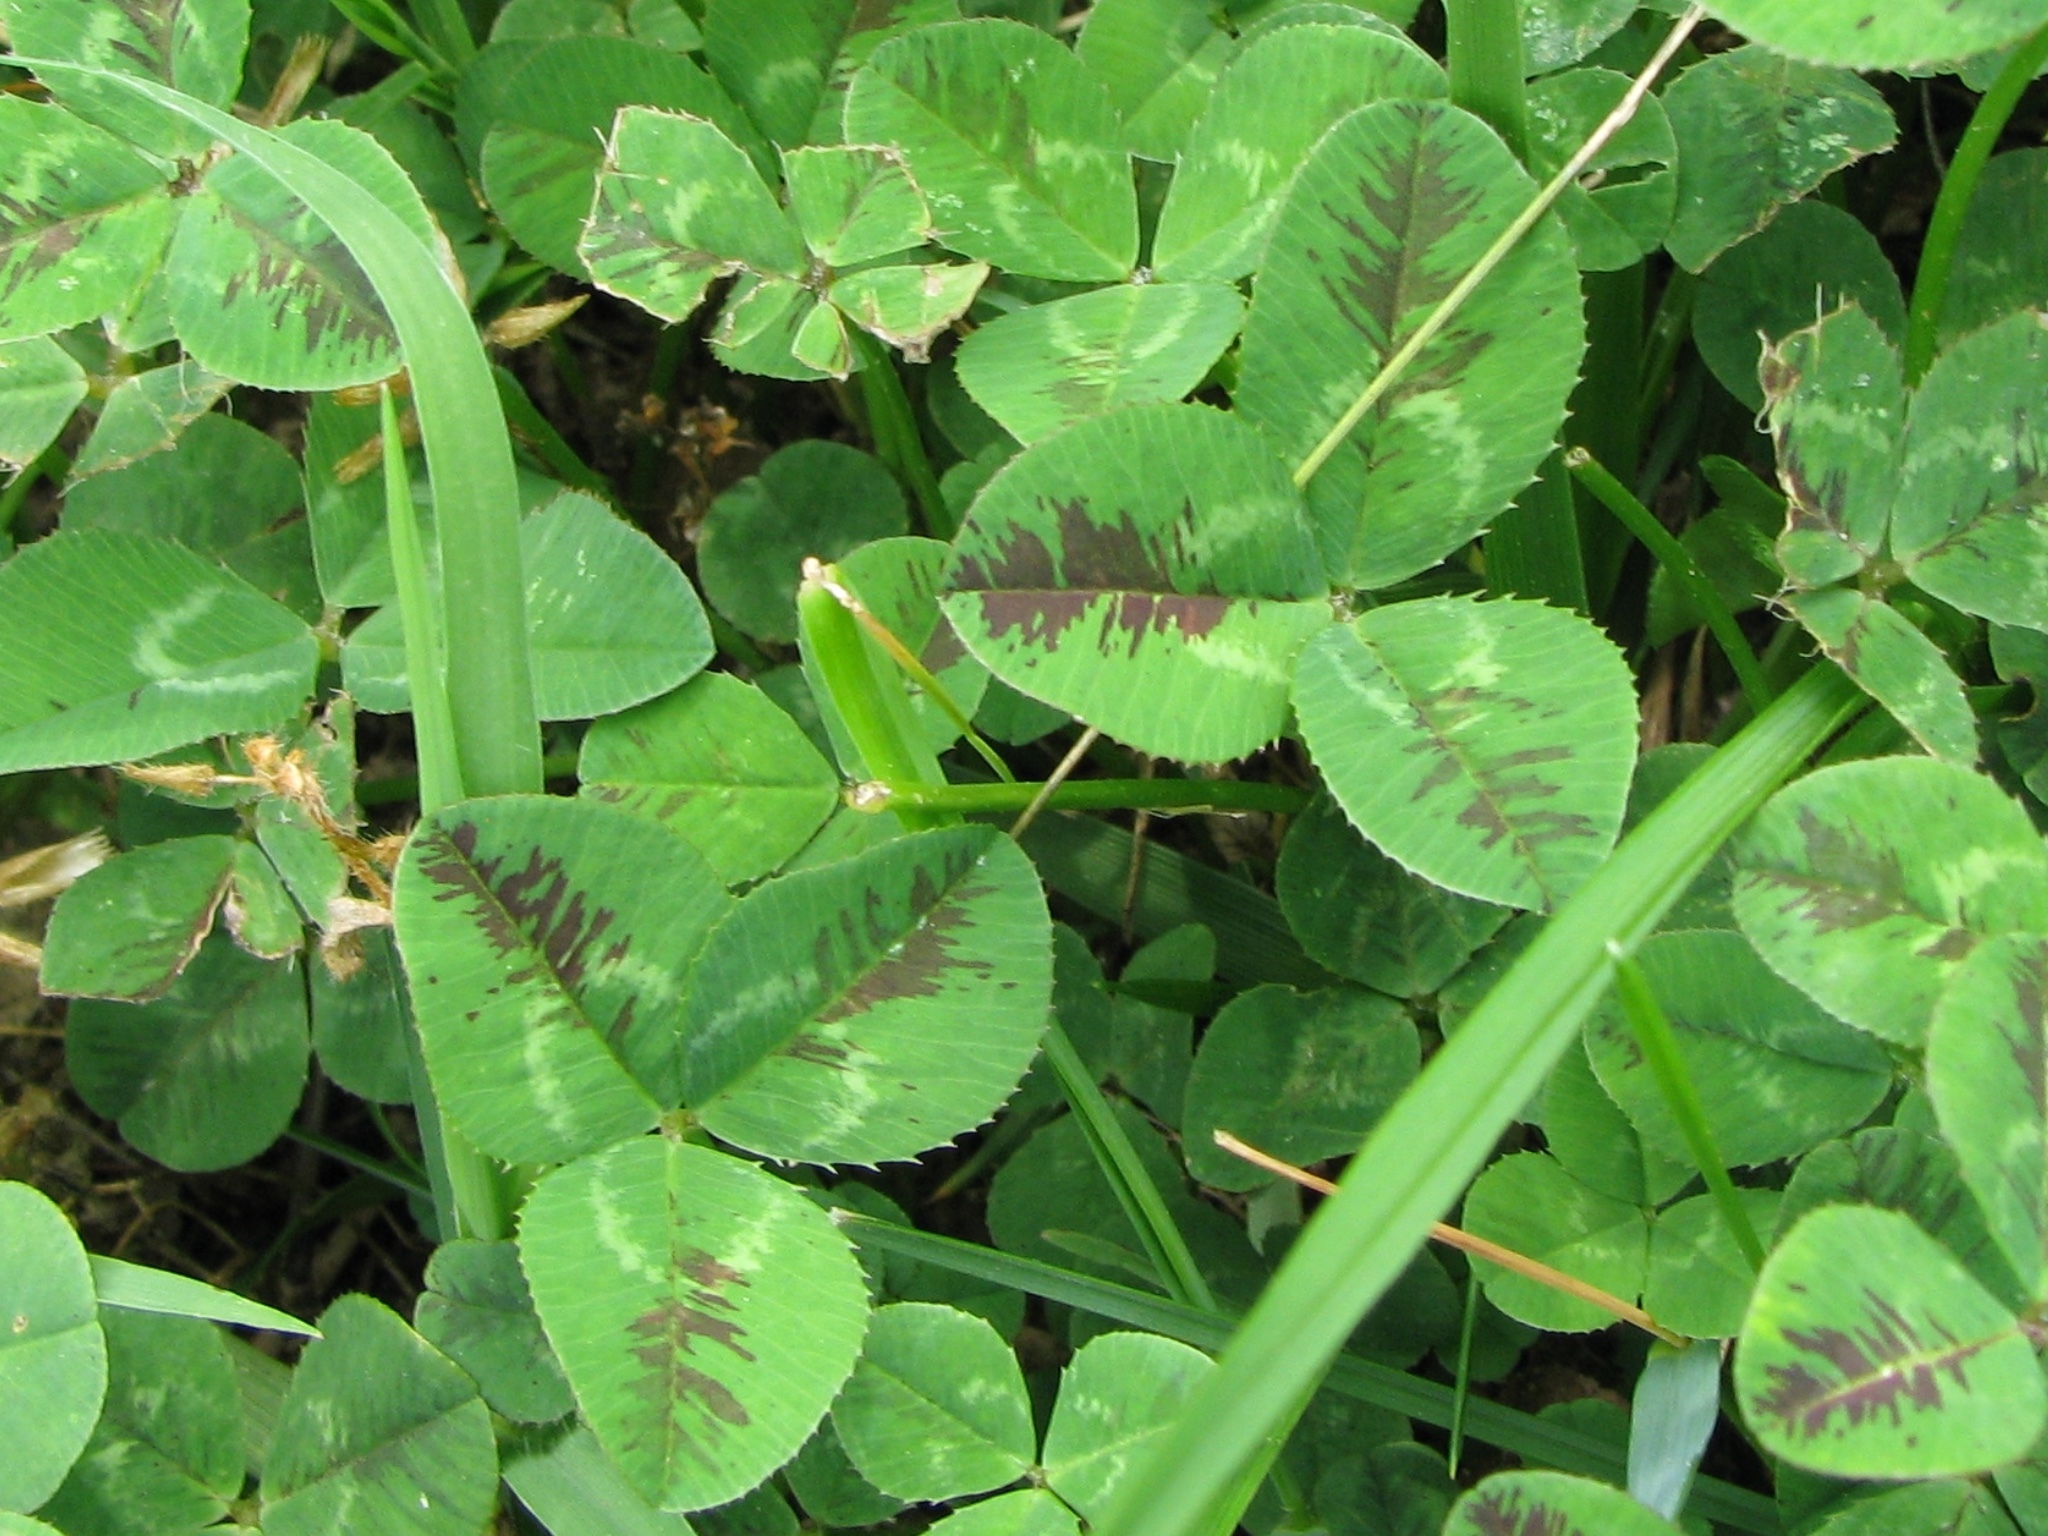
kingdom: Plantae
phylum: Tracheophyta
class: Magnoliopsida
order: Fabales
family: Fabaceae
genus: Trifolium
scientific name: Trifolium repens
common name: White clover
